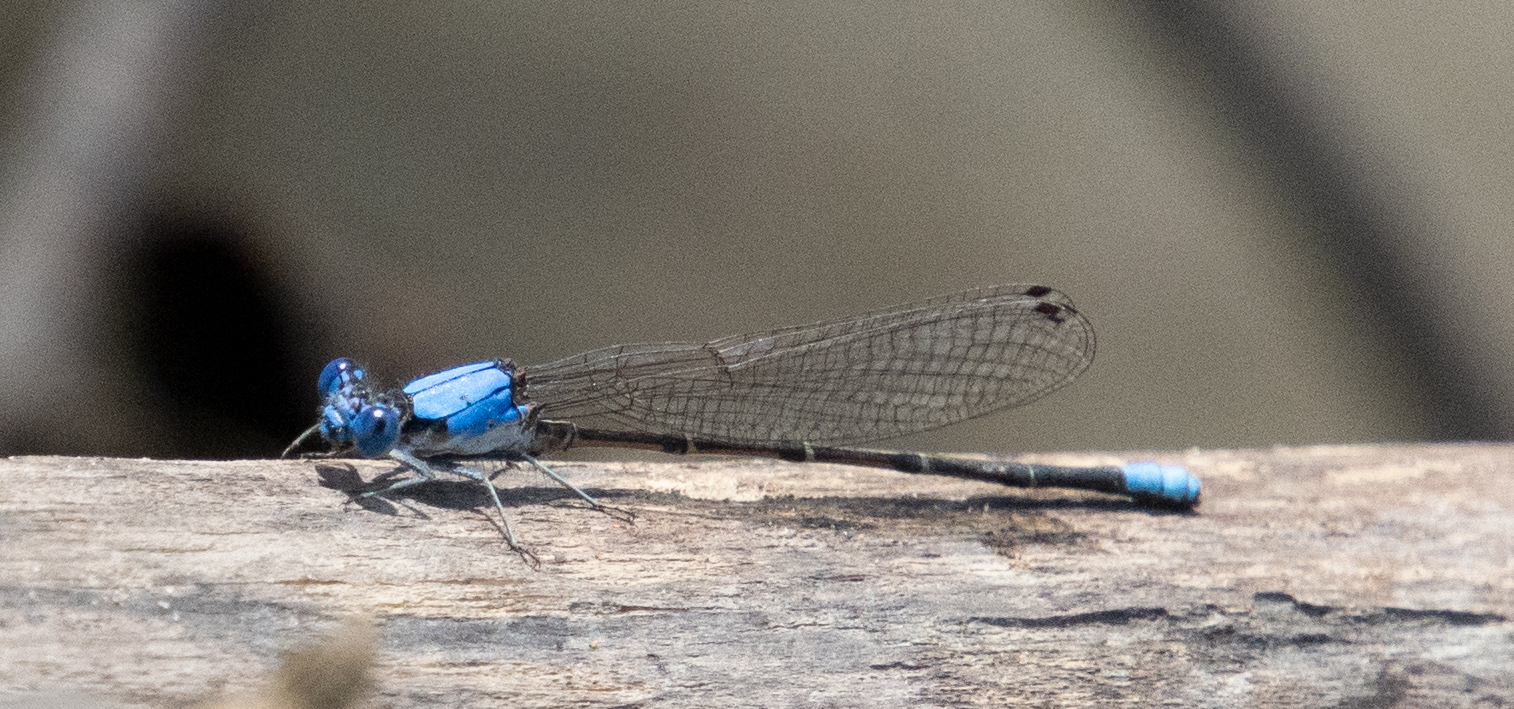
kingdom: Animalia
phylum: Arthropoda
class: Insecta
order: Odonata
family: Coenagrionidae
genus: Argia
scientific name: Argia apicalis
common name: Blue-fronted dancer
